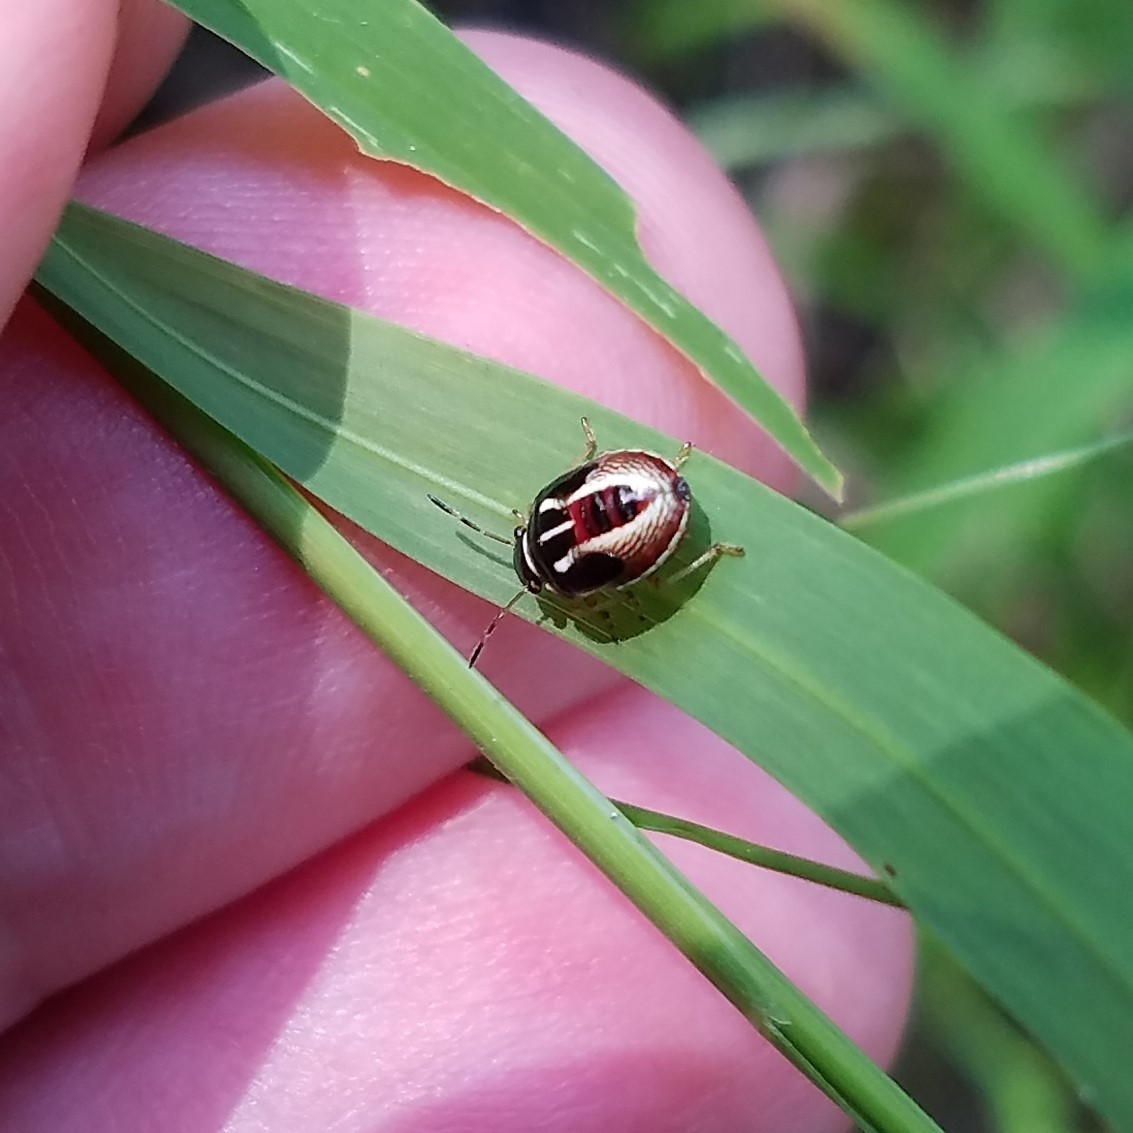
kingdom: Animalia
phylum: Arthropoda
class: Insecta
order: Hemiptera
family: Pentatomidae
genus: Mormidea
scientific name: Mormidea lugens
